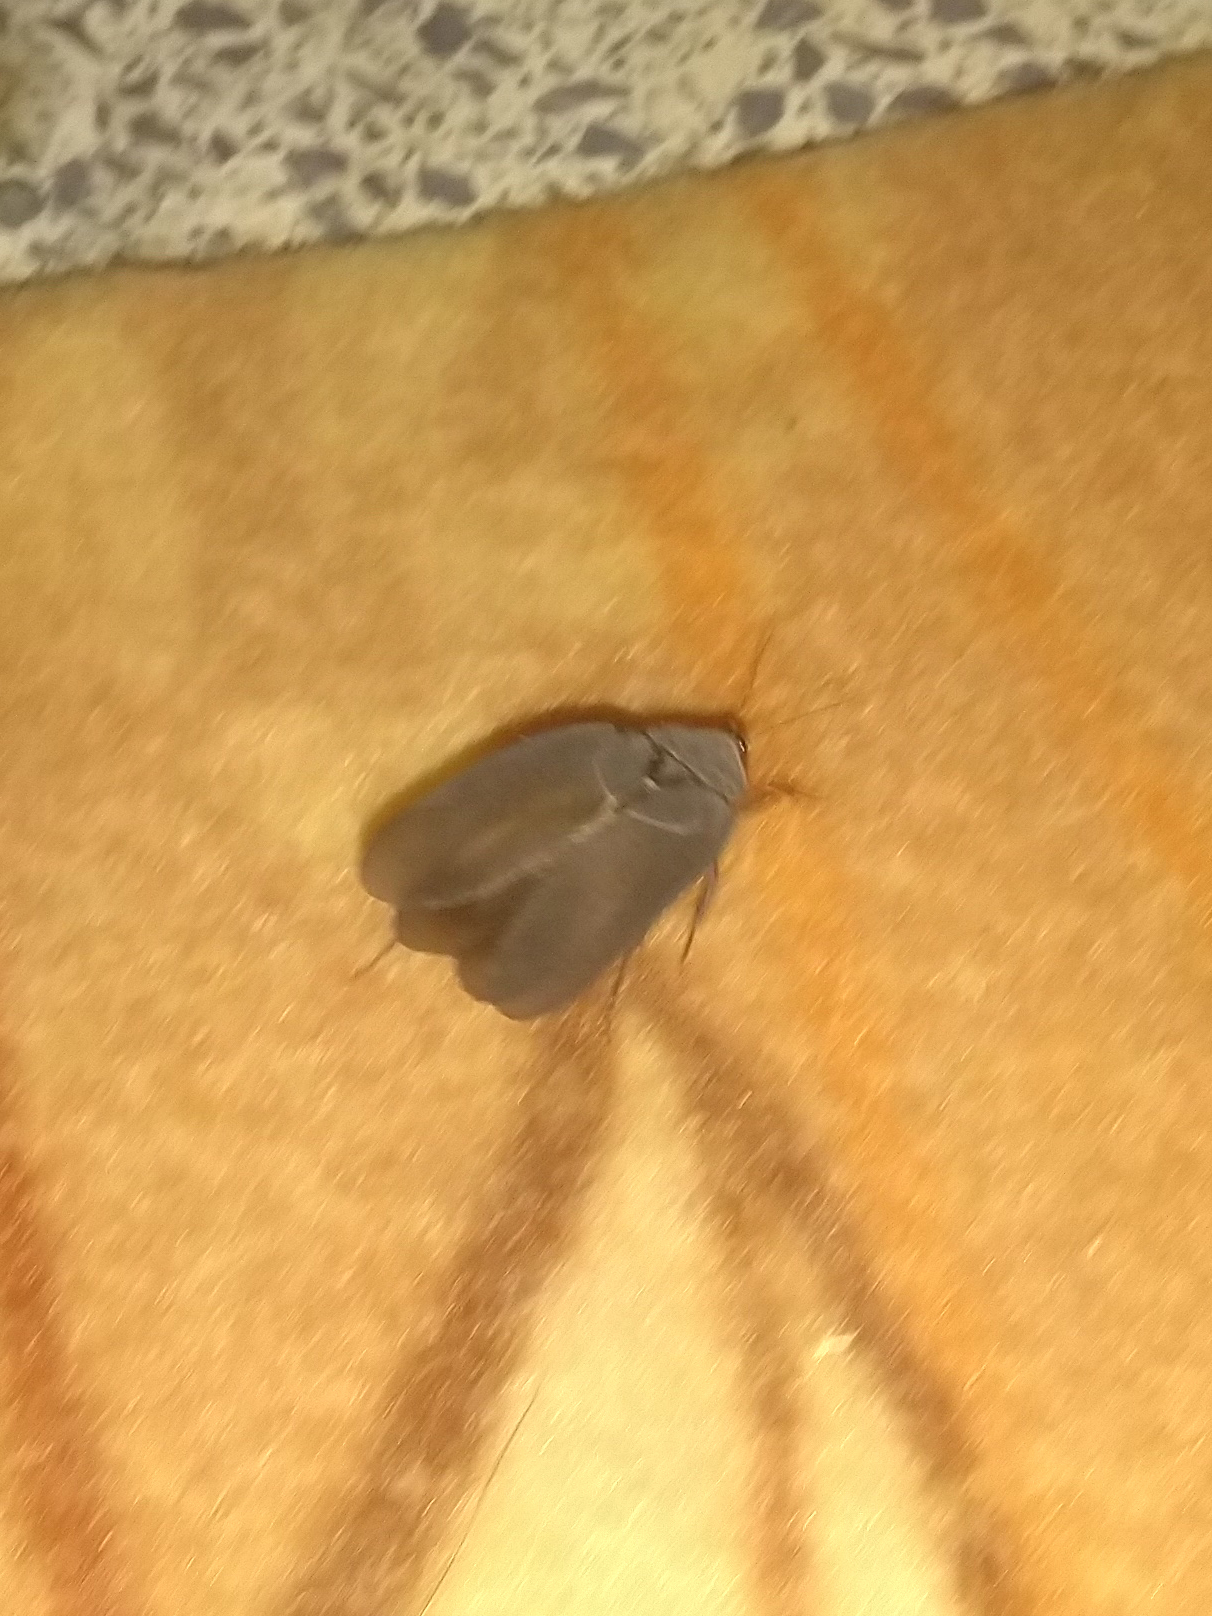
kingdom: Animalia
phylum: Arthropoda
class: Insecta
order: Blattodea
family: Corydiidae
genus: Polyphaga
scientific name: Polyphaga aegyptiaca
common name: Egyptian cockroach
